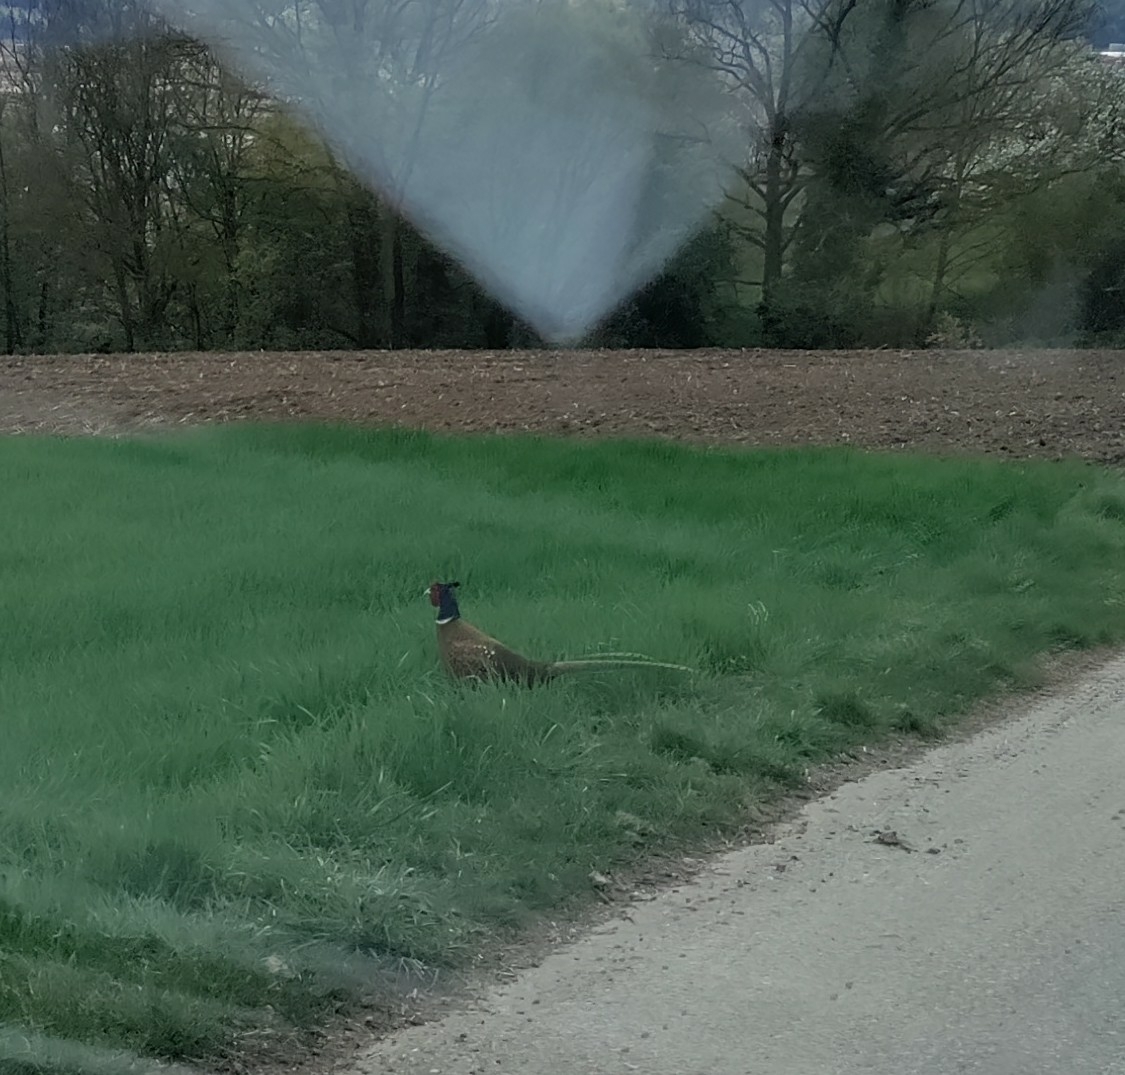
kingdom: Animalia
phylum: Chordata
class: Aves
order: Galliformes
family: Phasianidae
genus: Phasianus
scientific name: Phasianus colchicus
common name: Common pheasant
